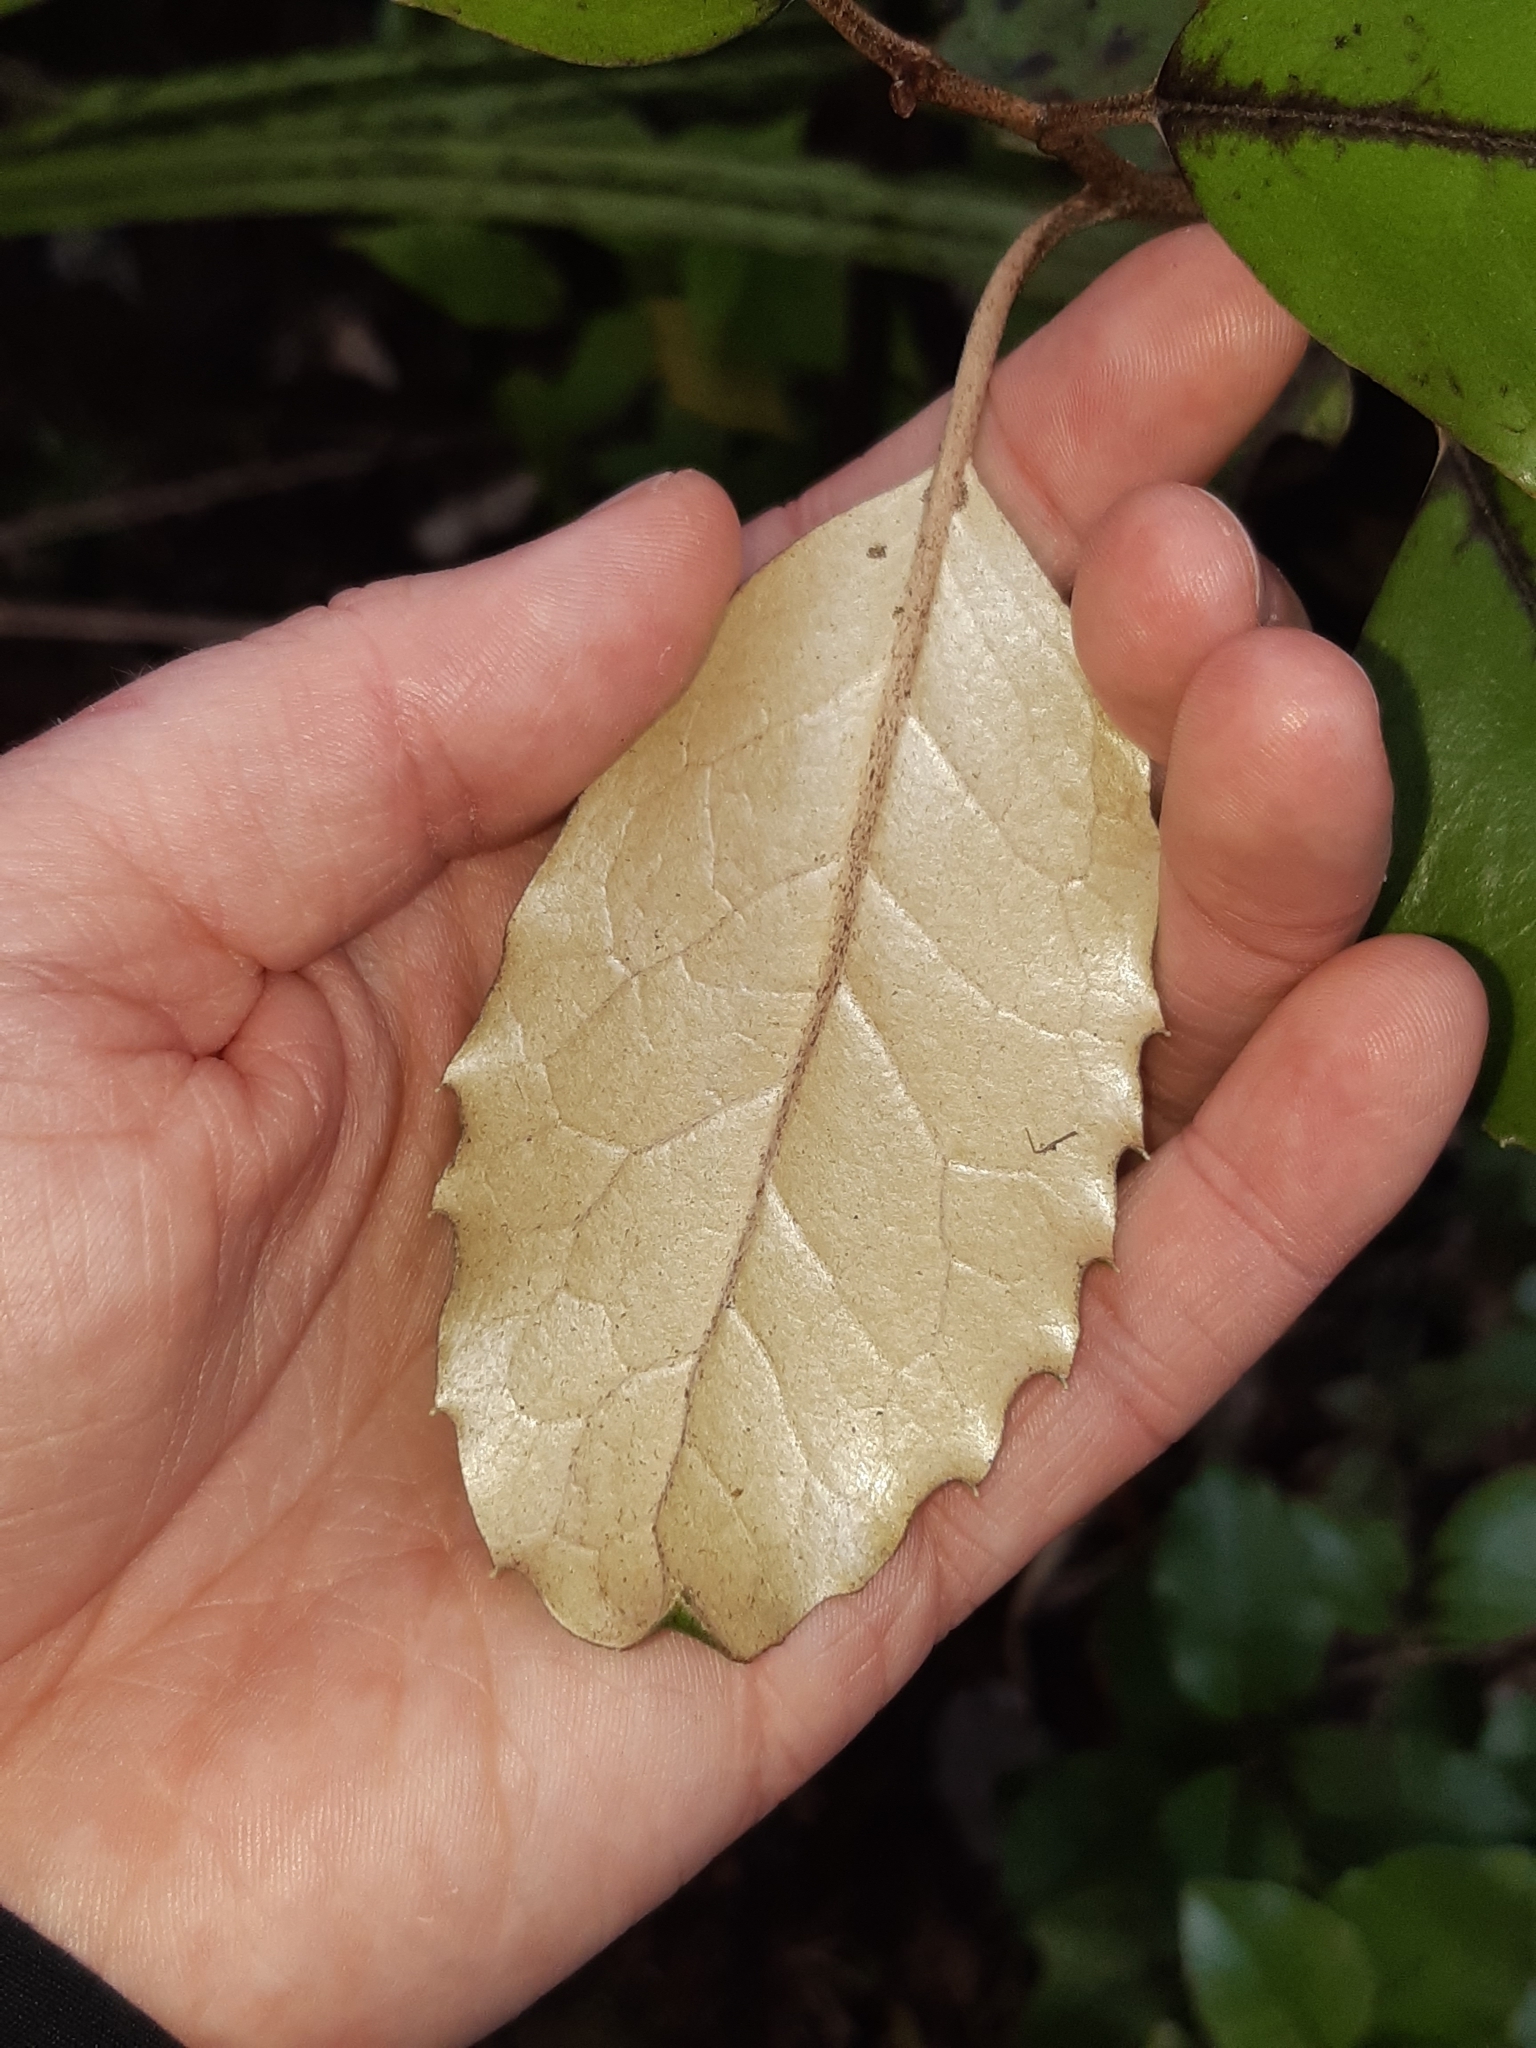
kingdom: Plantae
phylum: Tracheophyta
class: Magnoliopsida
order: Asterales
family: Asteraceae
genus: Olearia
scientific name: Olearia furfuracea
